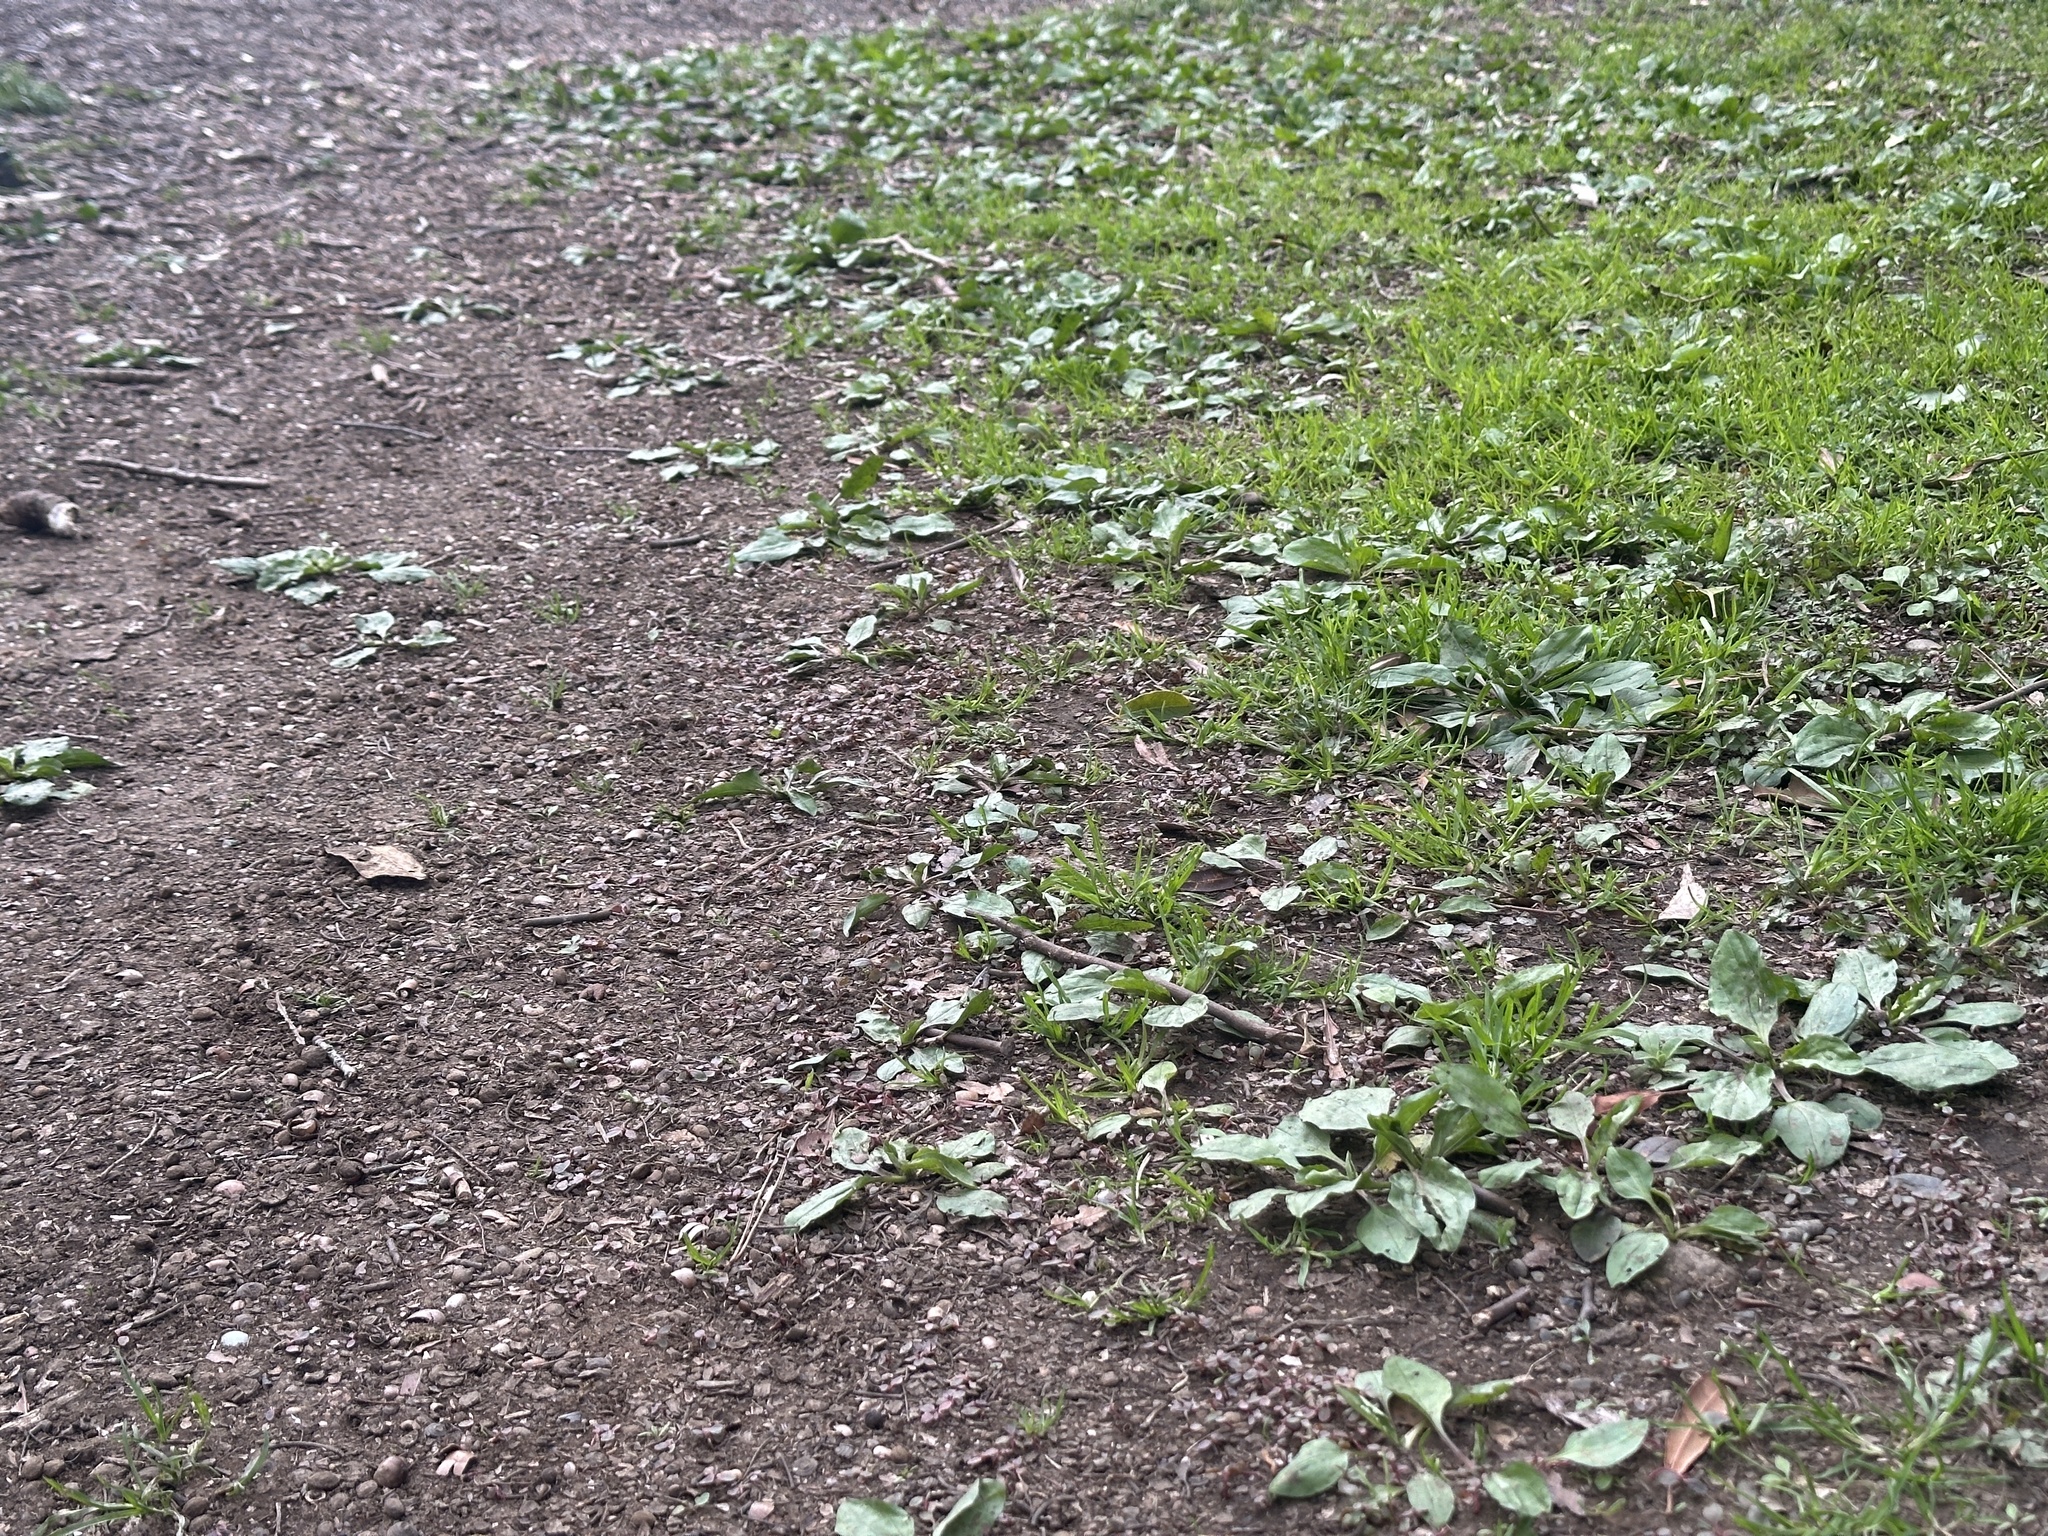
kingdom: Plantae
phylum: Tracheophyta
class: Magnoliopsida
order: Lamiales
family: Plantaginaceae
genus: Plantago
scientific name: Plantago asiatica
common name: Psyllium
